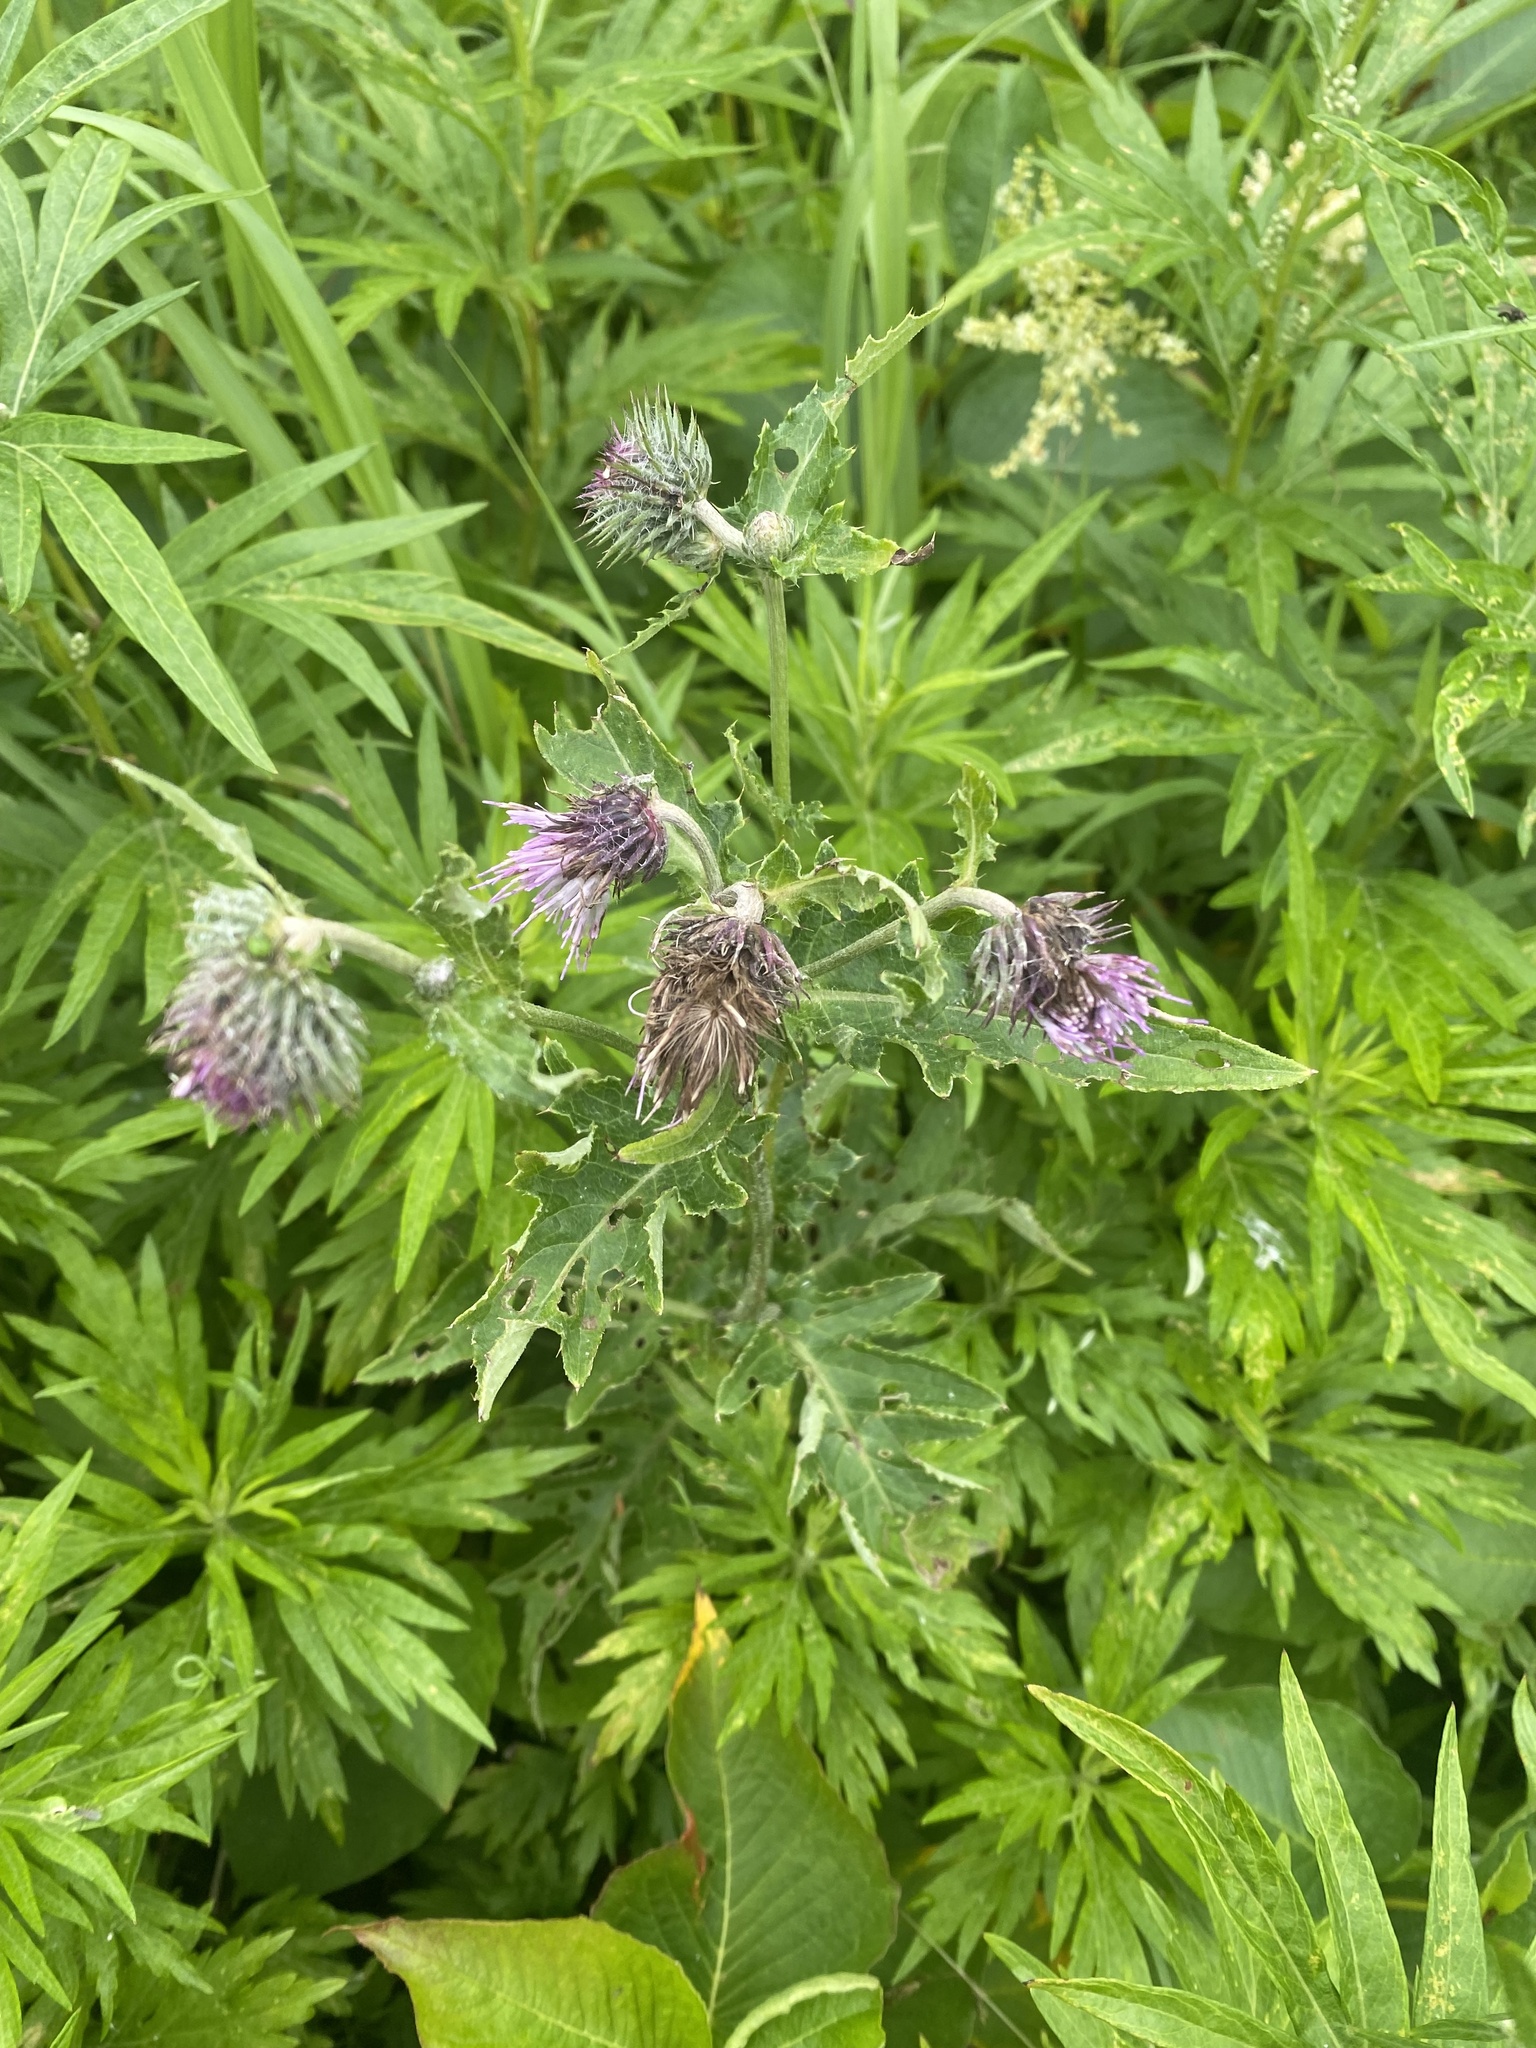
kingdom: Plantae
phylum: Tracheophyta
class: Magnoliopsida
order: Asterales
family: Asteraceae
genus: Cirsium
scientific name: Cirsium kamtschaticum
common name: Kamchatka thistle
